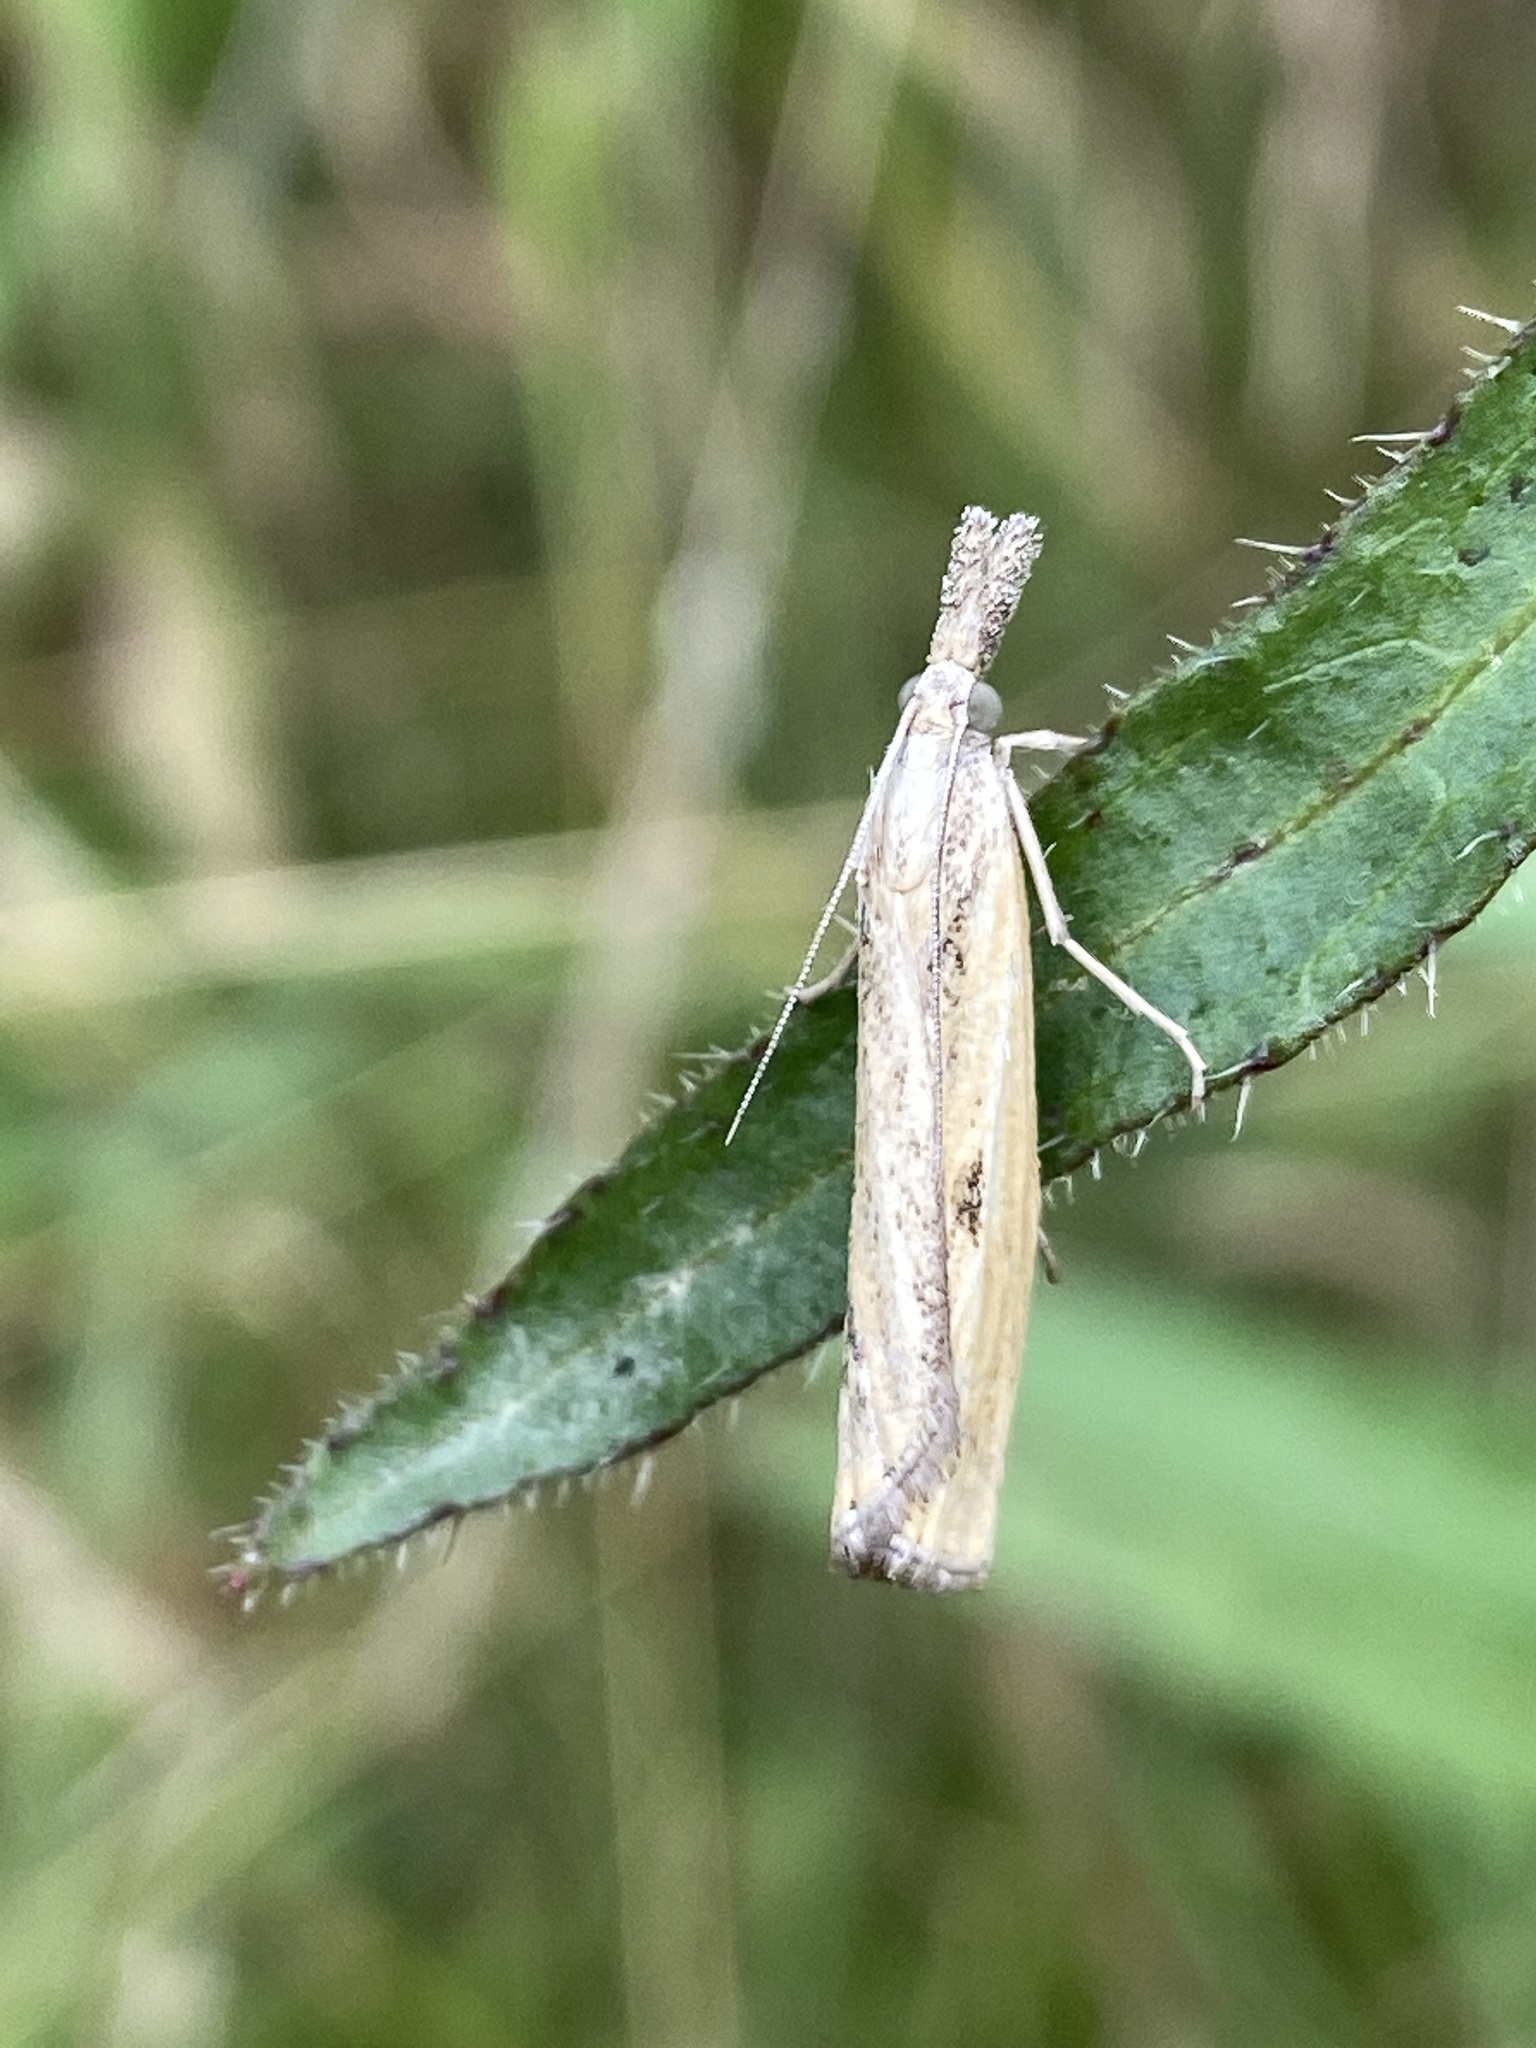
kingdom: Animalia
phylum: Arthropoda
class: Insecta
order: Lepidoptera
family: Crambidae
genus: Agriphila
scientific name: Agriphila inquinatella
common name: Barred grass-veneer
